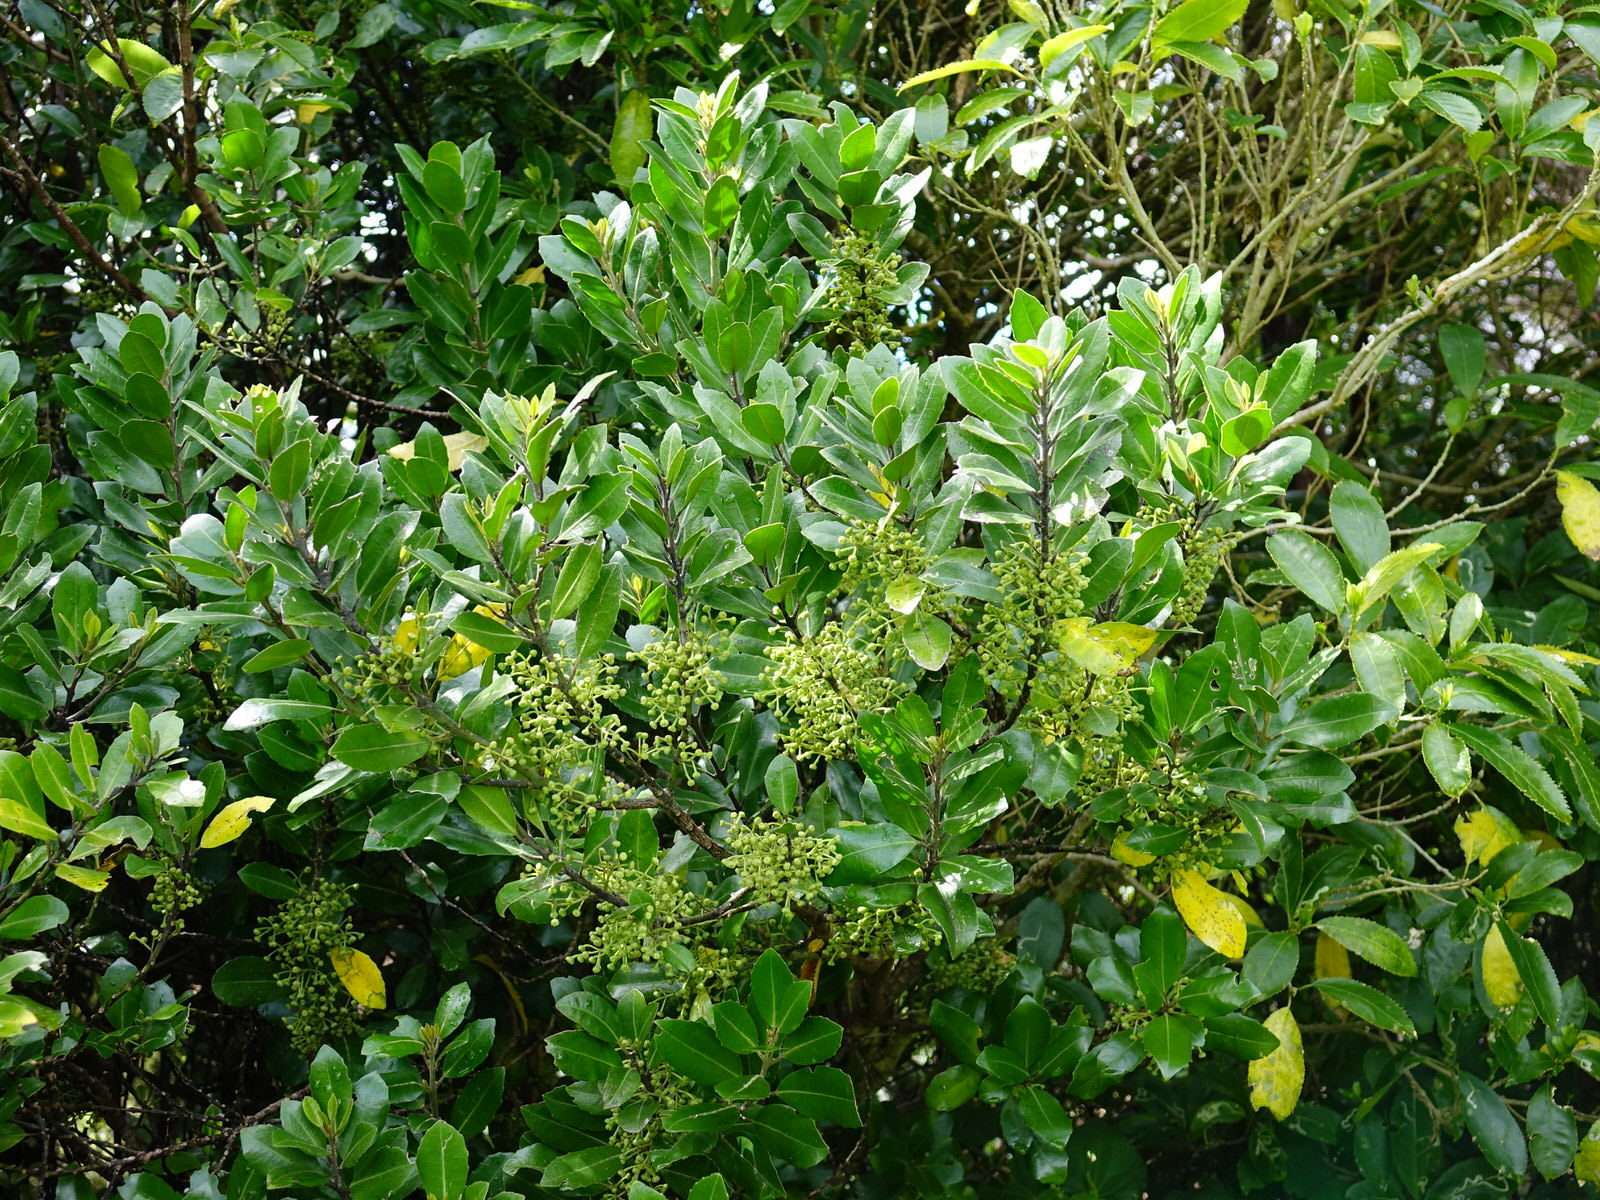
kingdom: Plantae
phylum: Tracheophyta
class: Magnoliopsida
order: Laurales
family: Monimiaceae
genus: Hedycarya
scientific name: Hedycarya arborea
